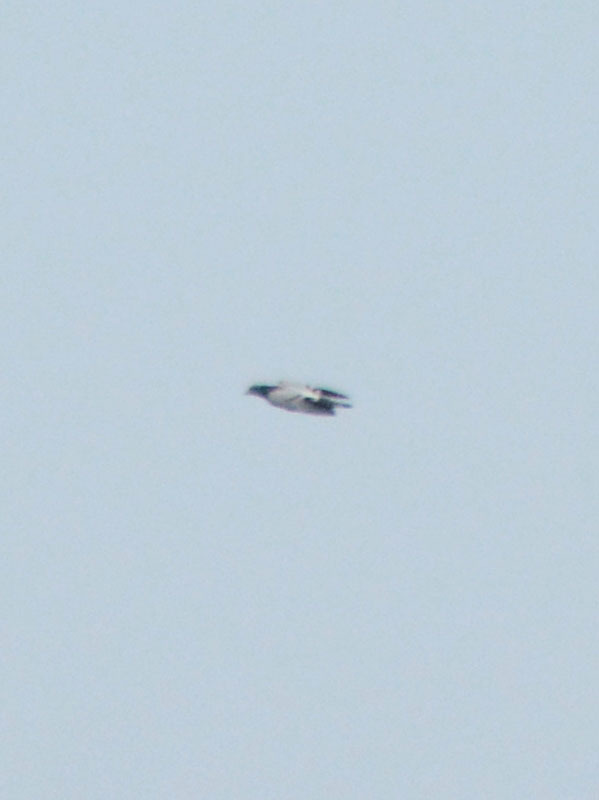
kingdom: Animalia
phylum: Chordata
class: Aves
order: Columbiformes
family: Columbidae
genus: Columba
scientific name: Columba livia
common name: Rock pigeon
